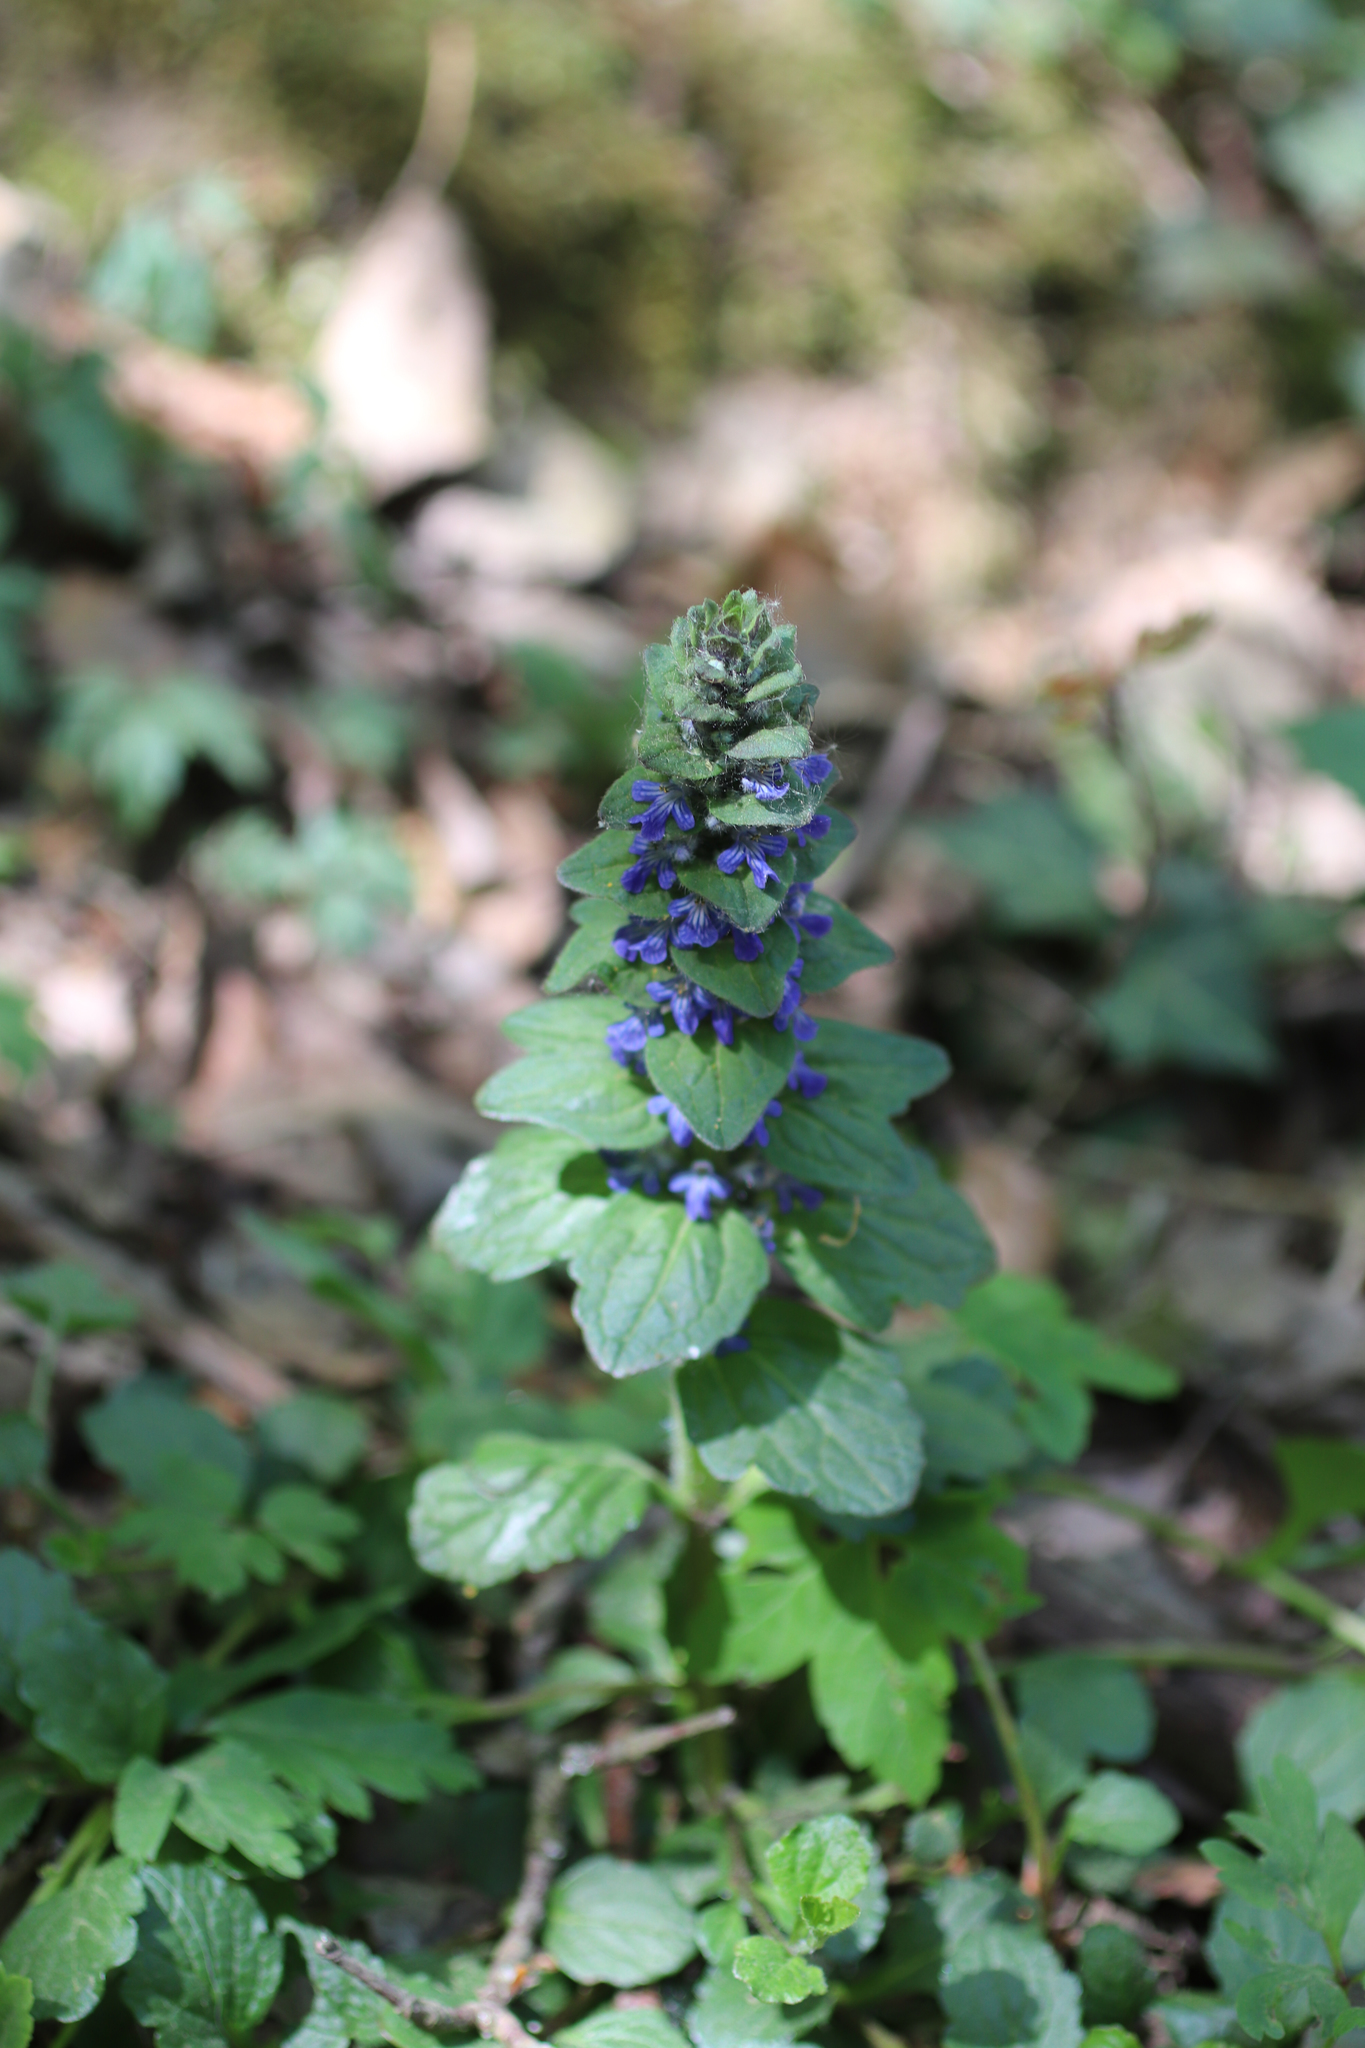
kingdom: Plantae
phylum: Tracheophyta
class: Magnoliopsida
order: Lamiales
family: Lamiaceae
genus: Ajuga
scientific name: Ajuga reptans
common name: Bugle
